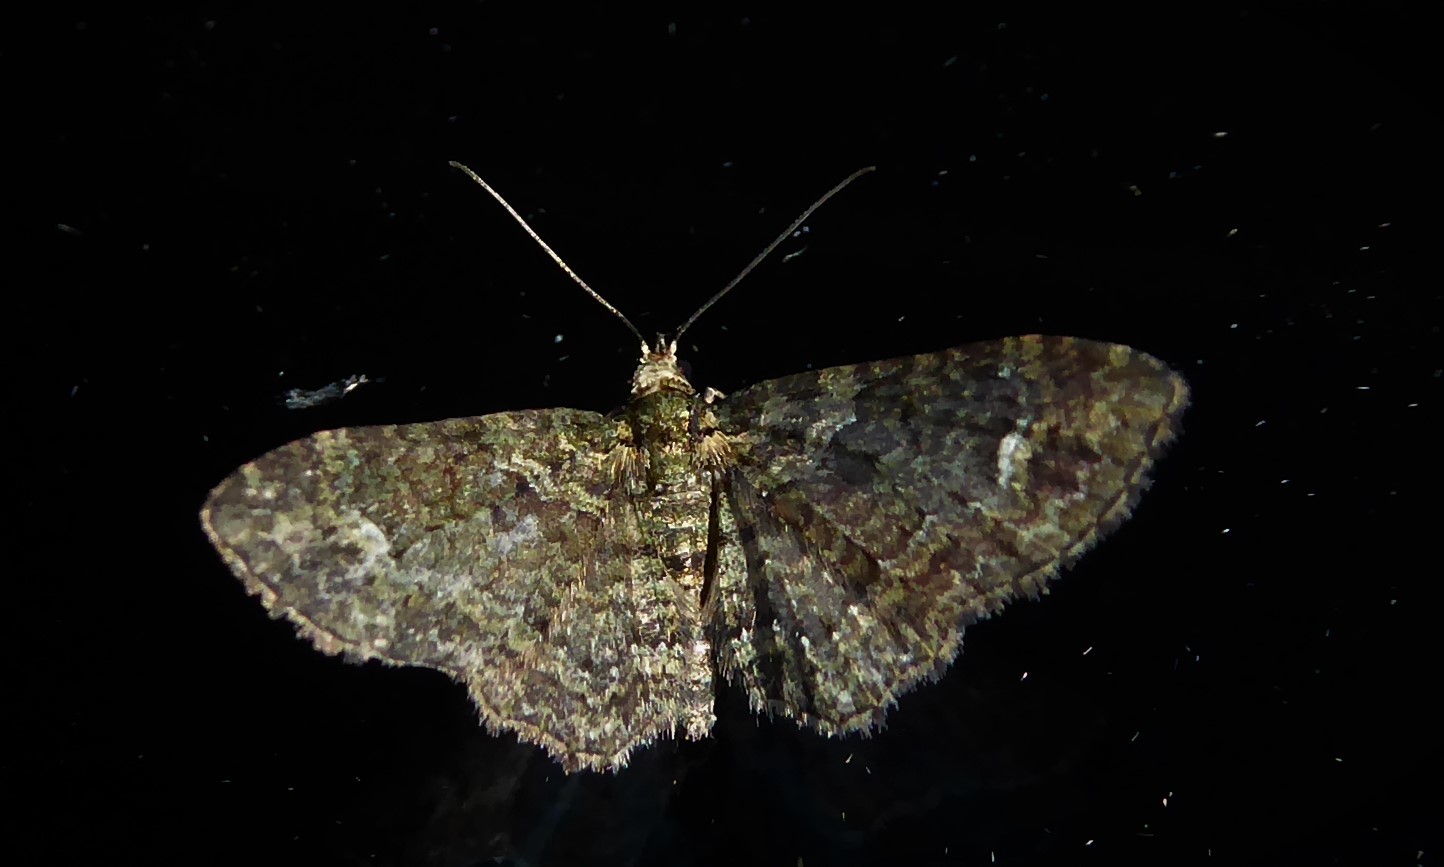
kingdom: Animalia
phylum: Arthropoda
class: Insecta
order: Lepidoptera
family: Geometridae
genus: Pasiphilodes
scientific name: Pasiphilodes testulata
